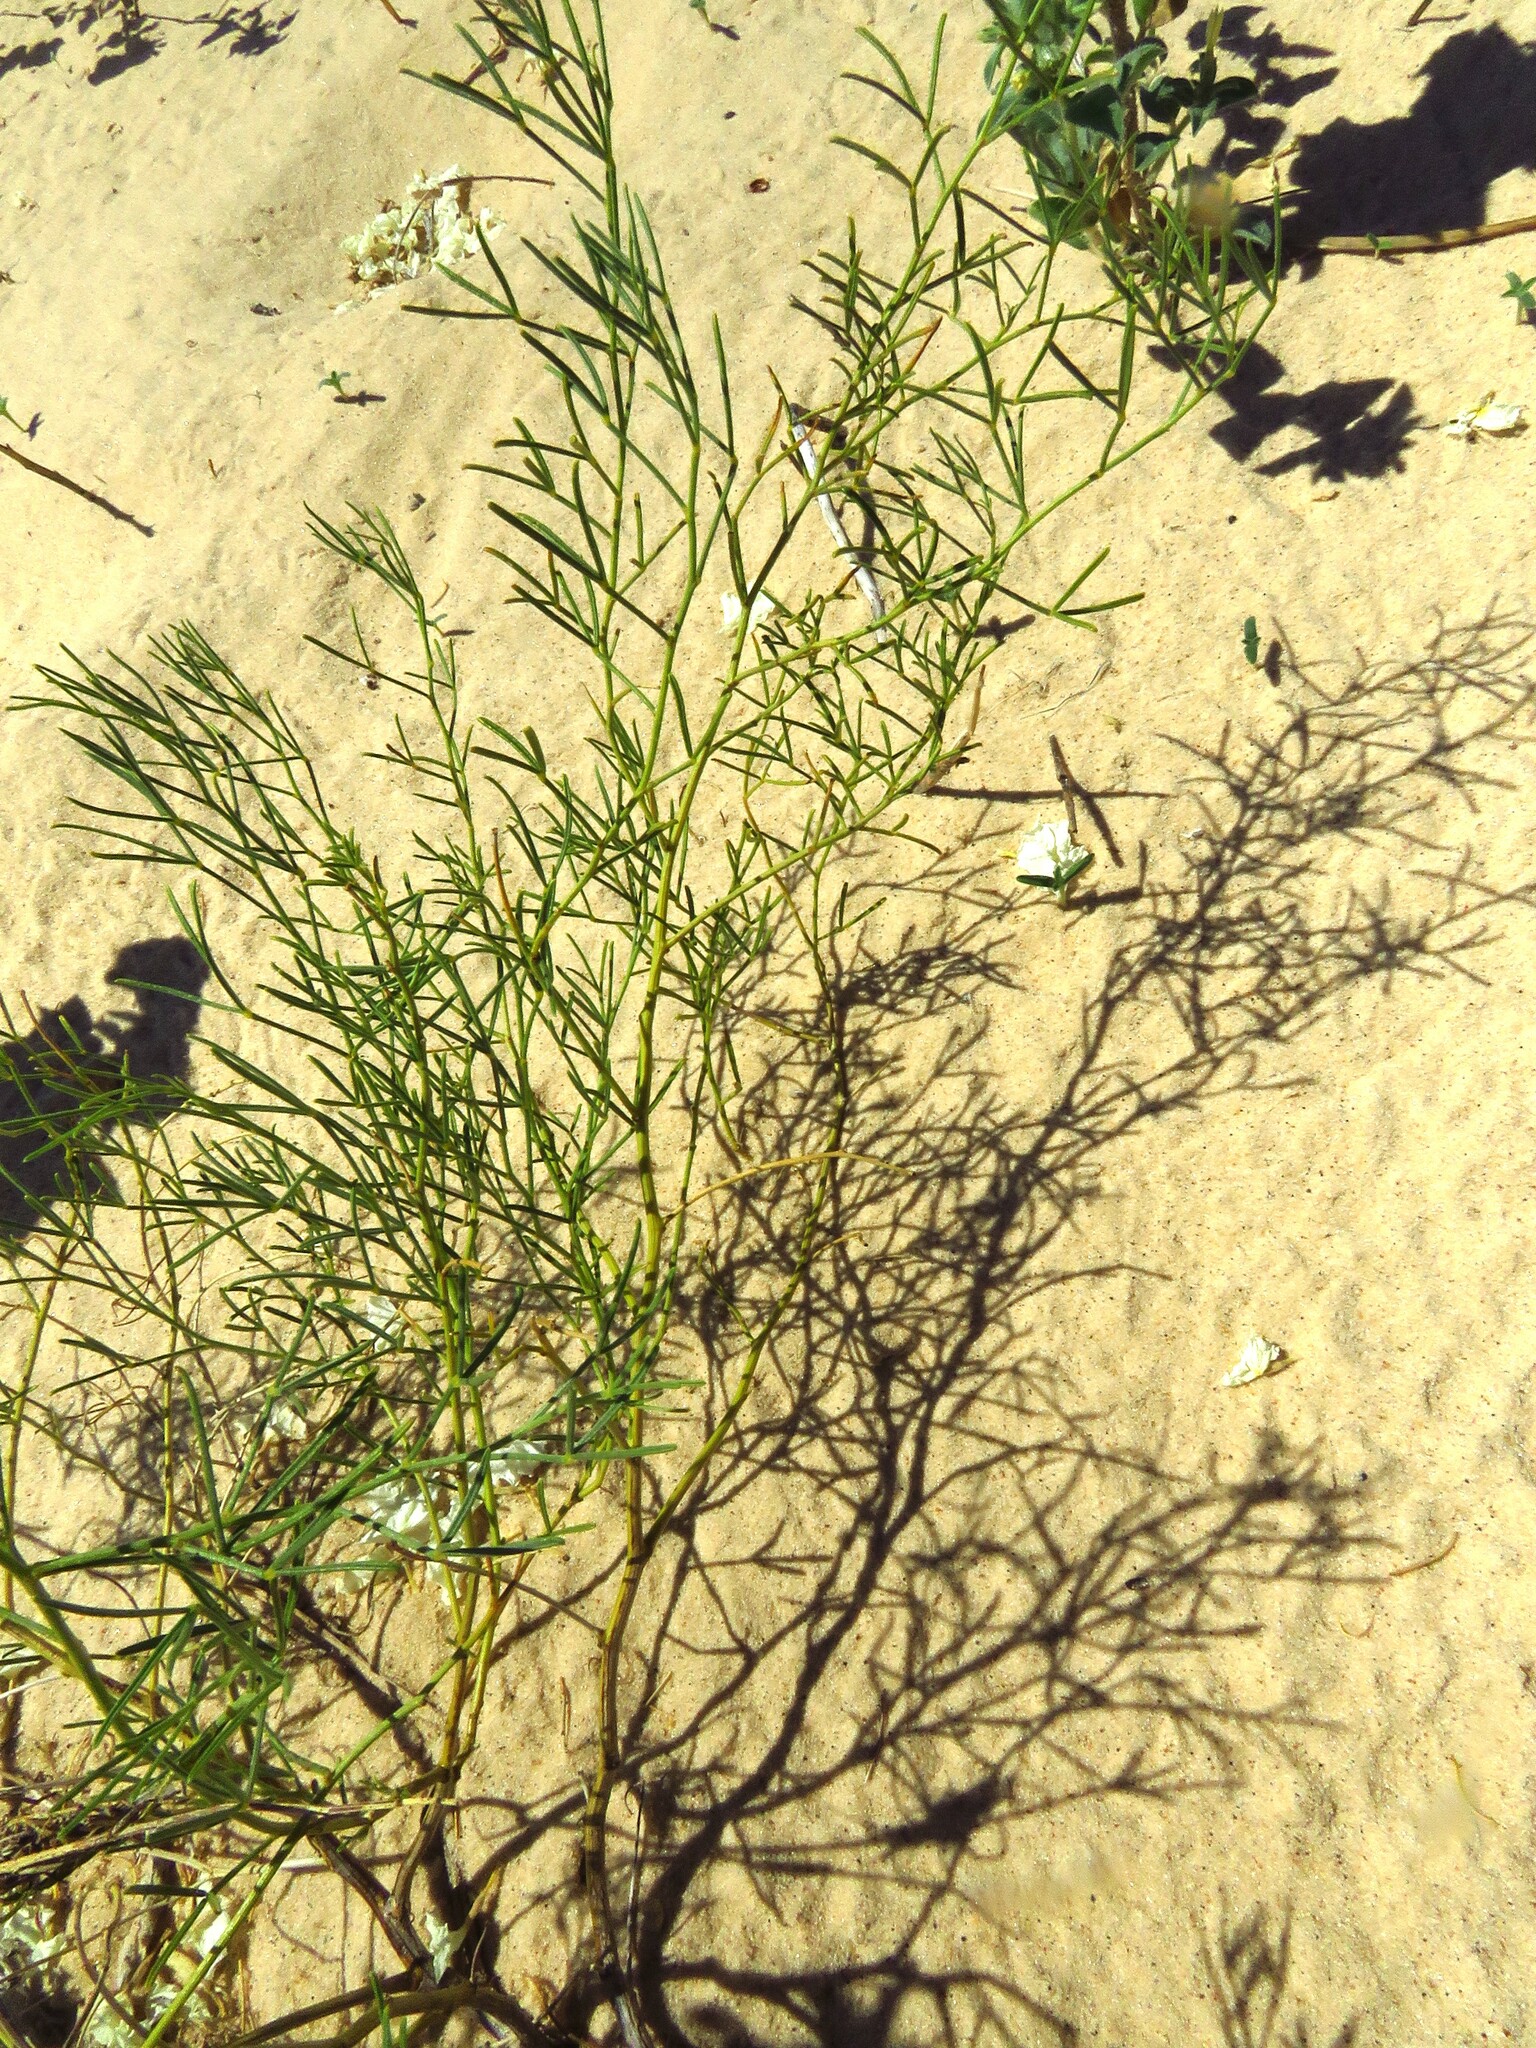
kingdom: Plantae
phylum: Tracheophyta
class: Magnoliopsida
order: Fabales
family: Fabaceae
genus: Ladeania
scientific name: Ladeania lanceolata
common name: Dune scurf-pea
